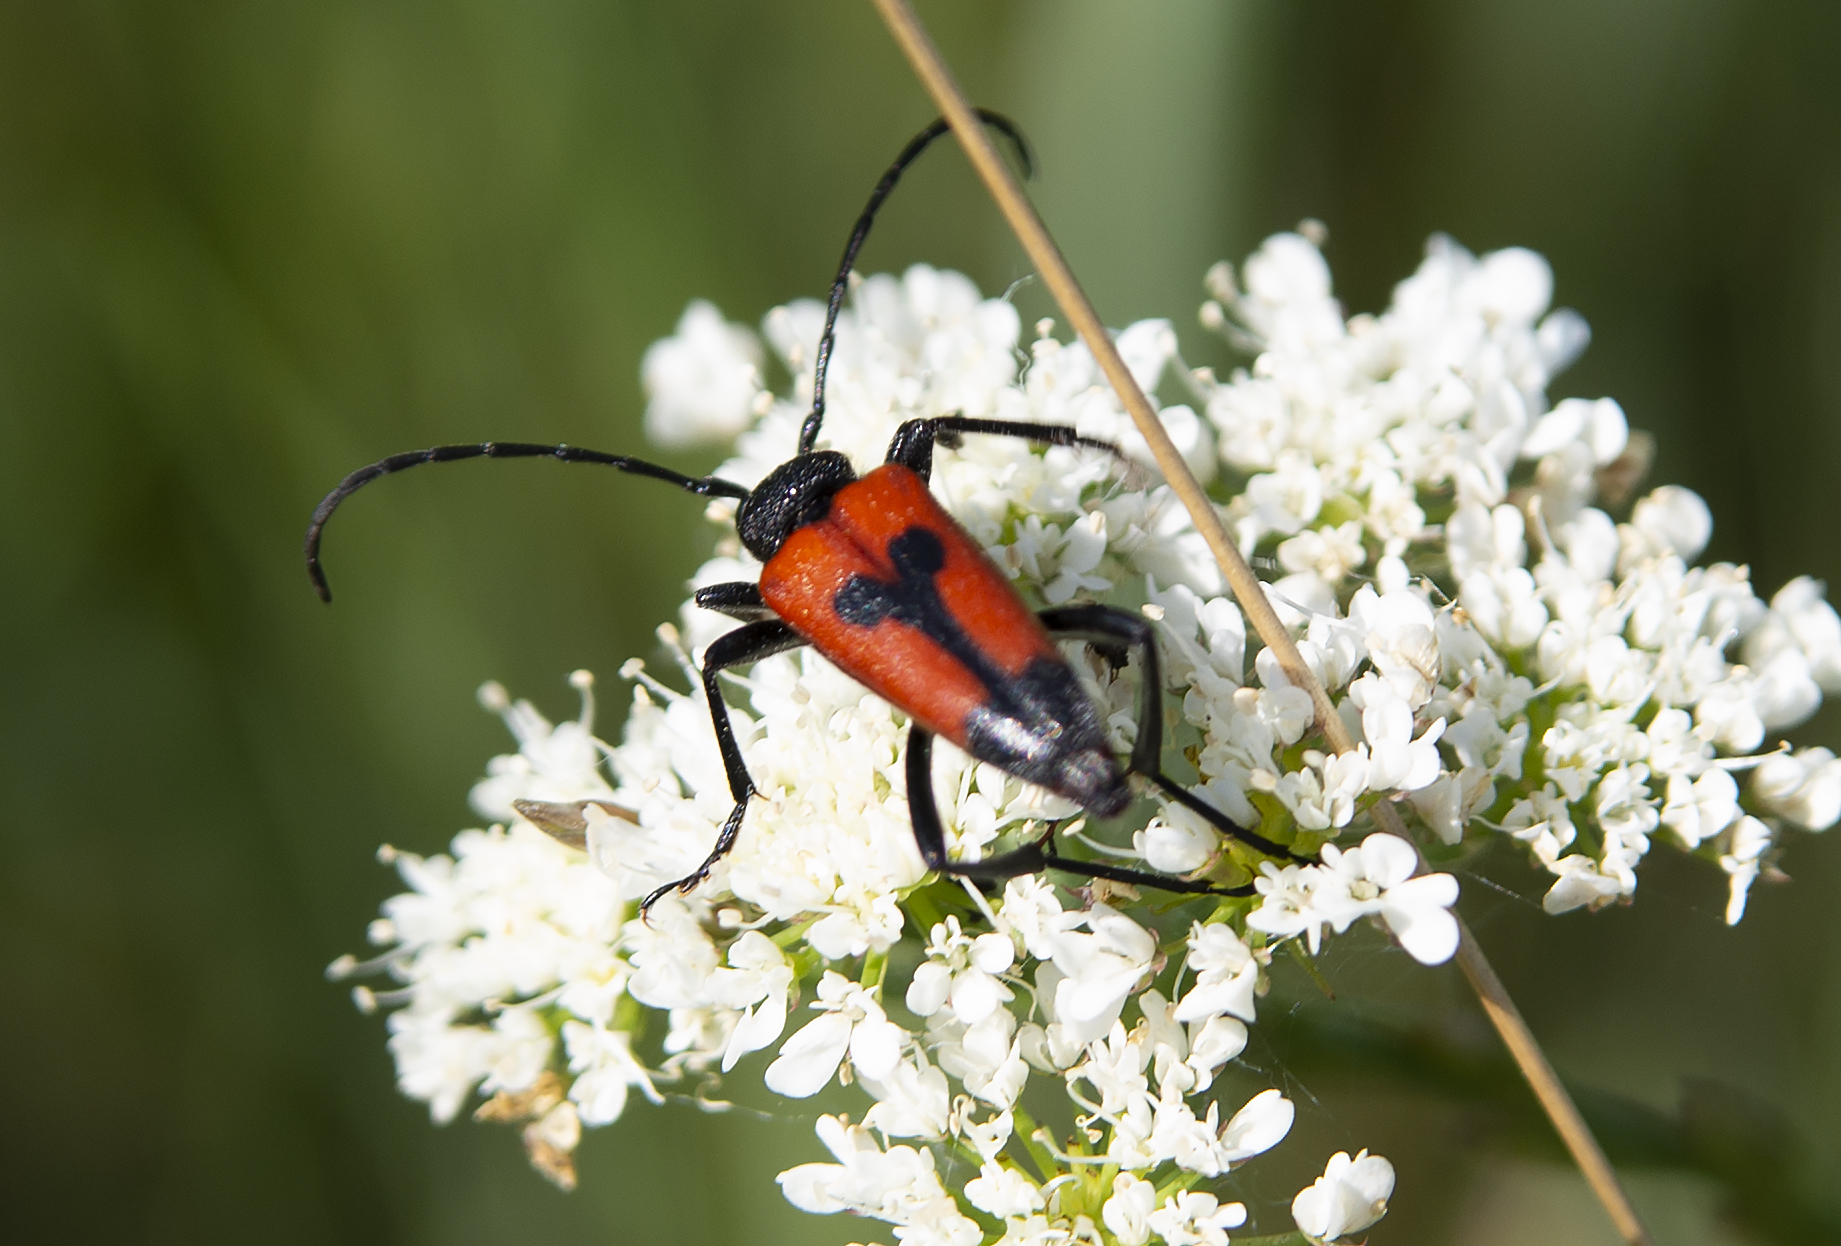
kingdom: Animalia
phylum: Arthropoda
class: Insecta
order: Coleoptera
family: Cerambycidae
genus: Stictoleptura
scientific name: Stictoleptura cordigera
